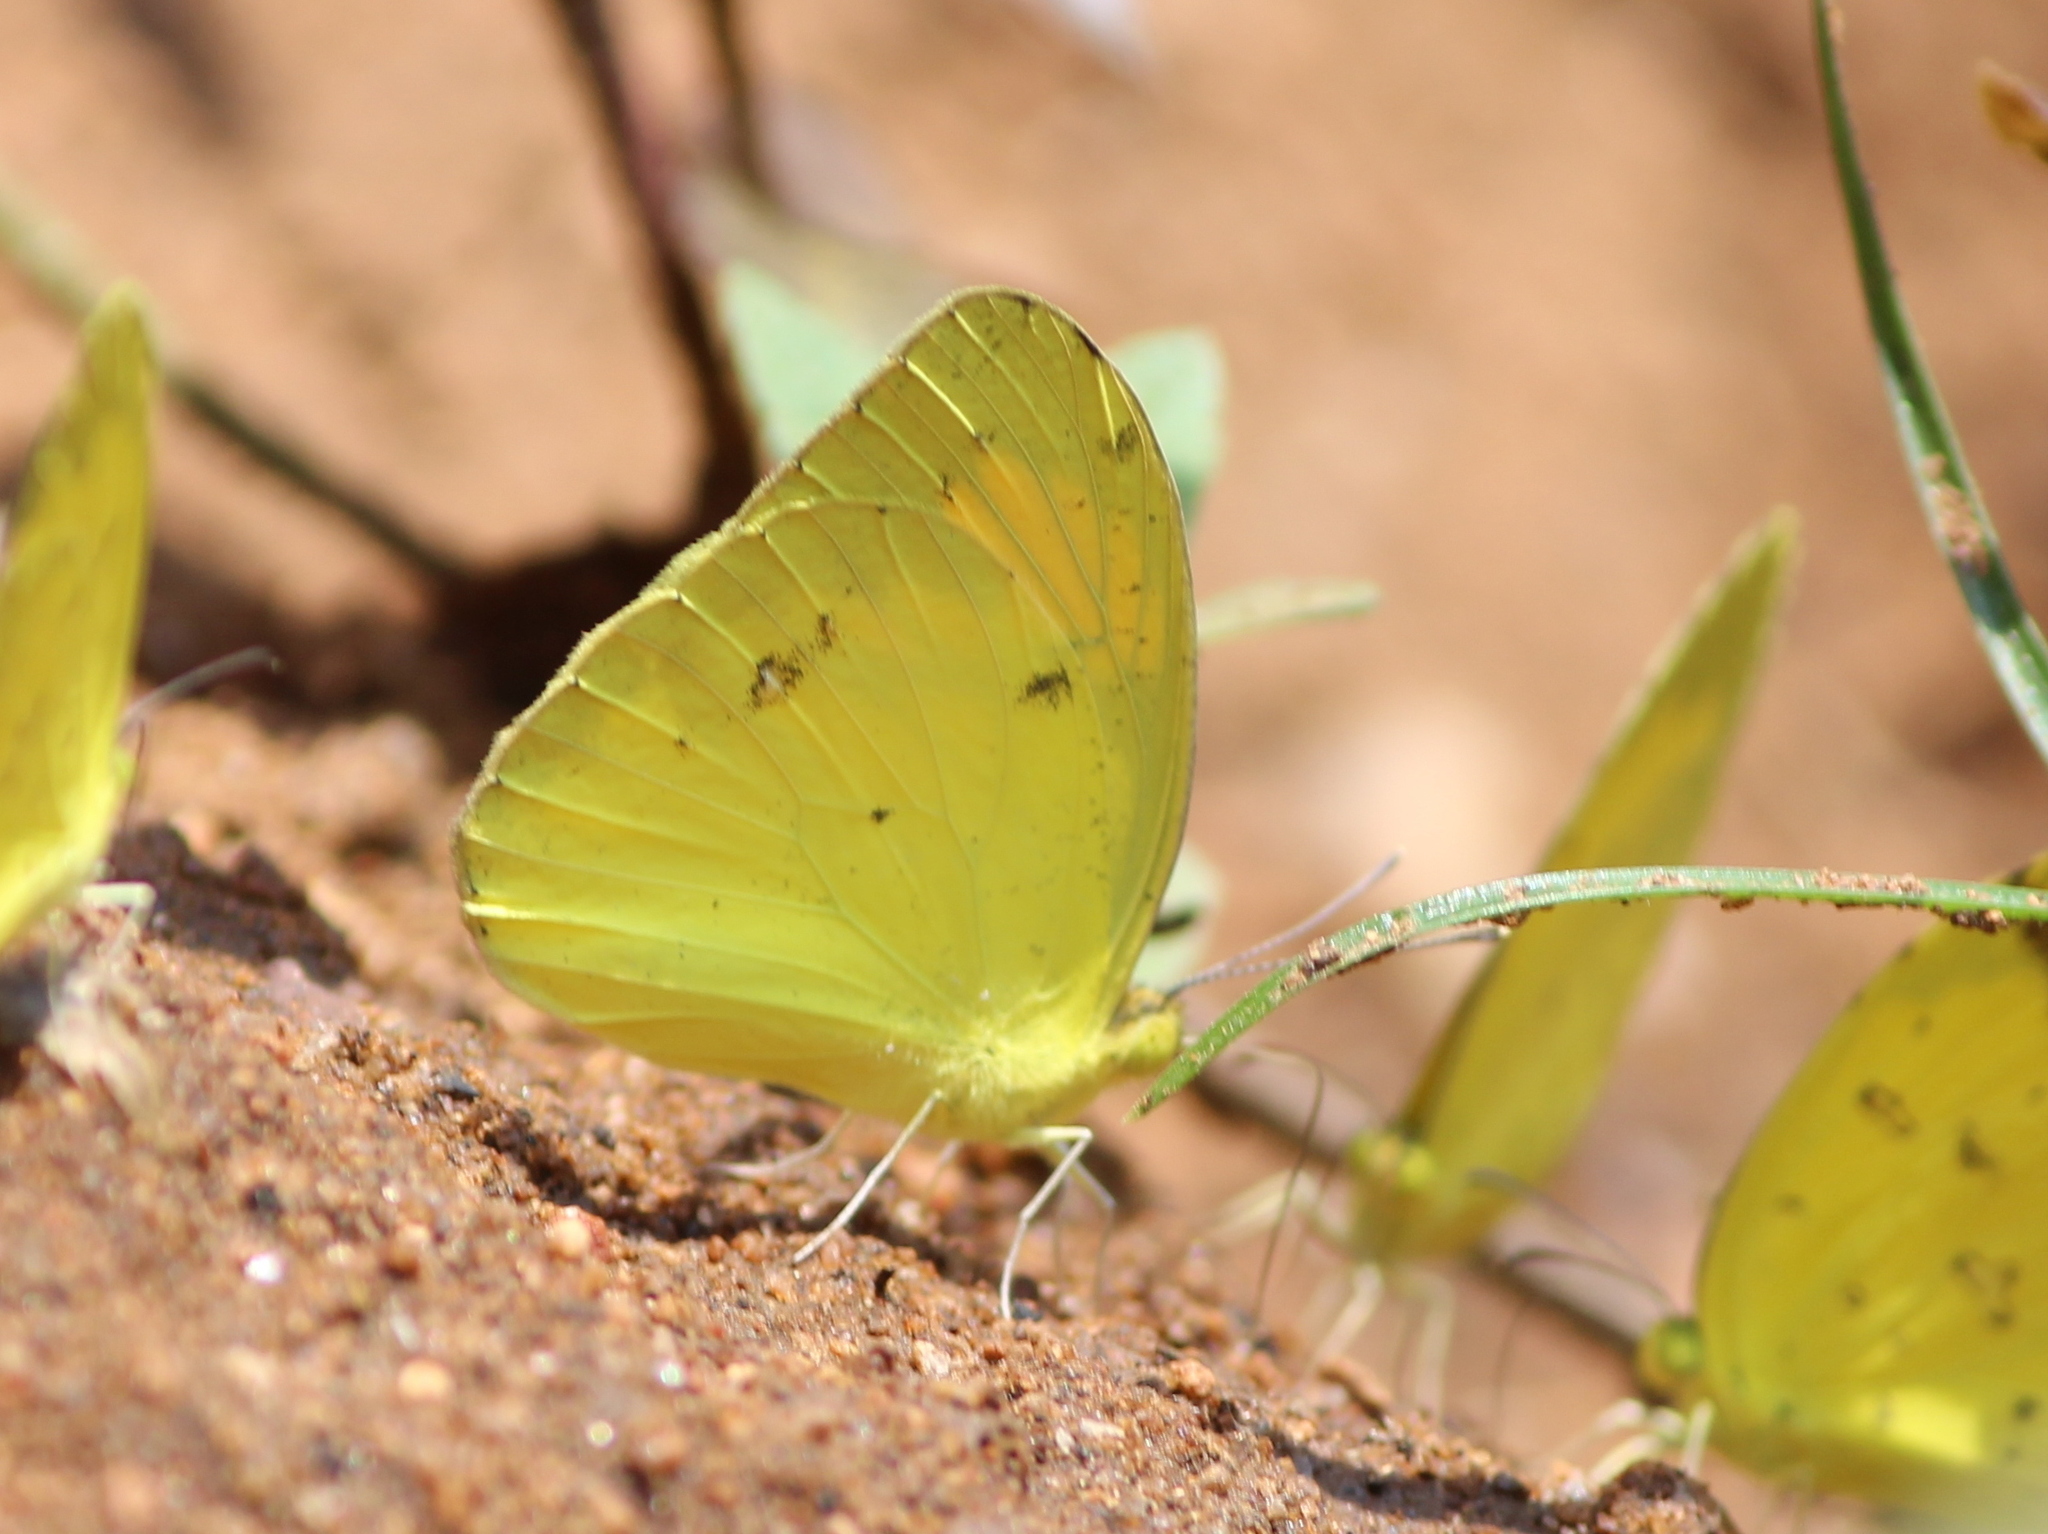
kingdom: Animalia
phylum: Arthropoda
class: Insecta
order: Lepidoptera
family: Pieridae
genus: Ixias
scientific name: Ixias pyrene
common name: Yellow orange tip
